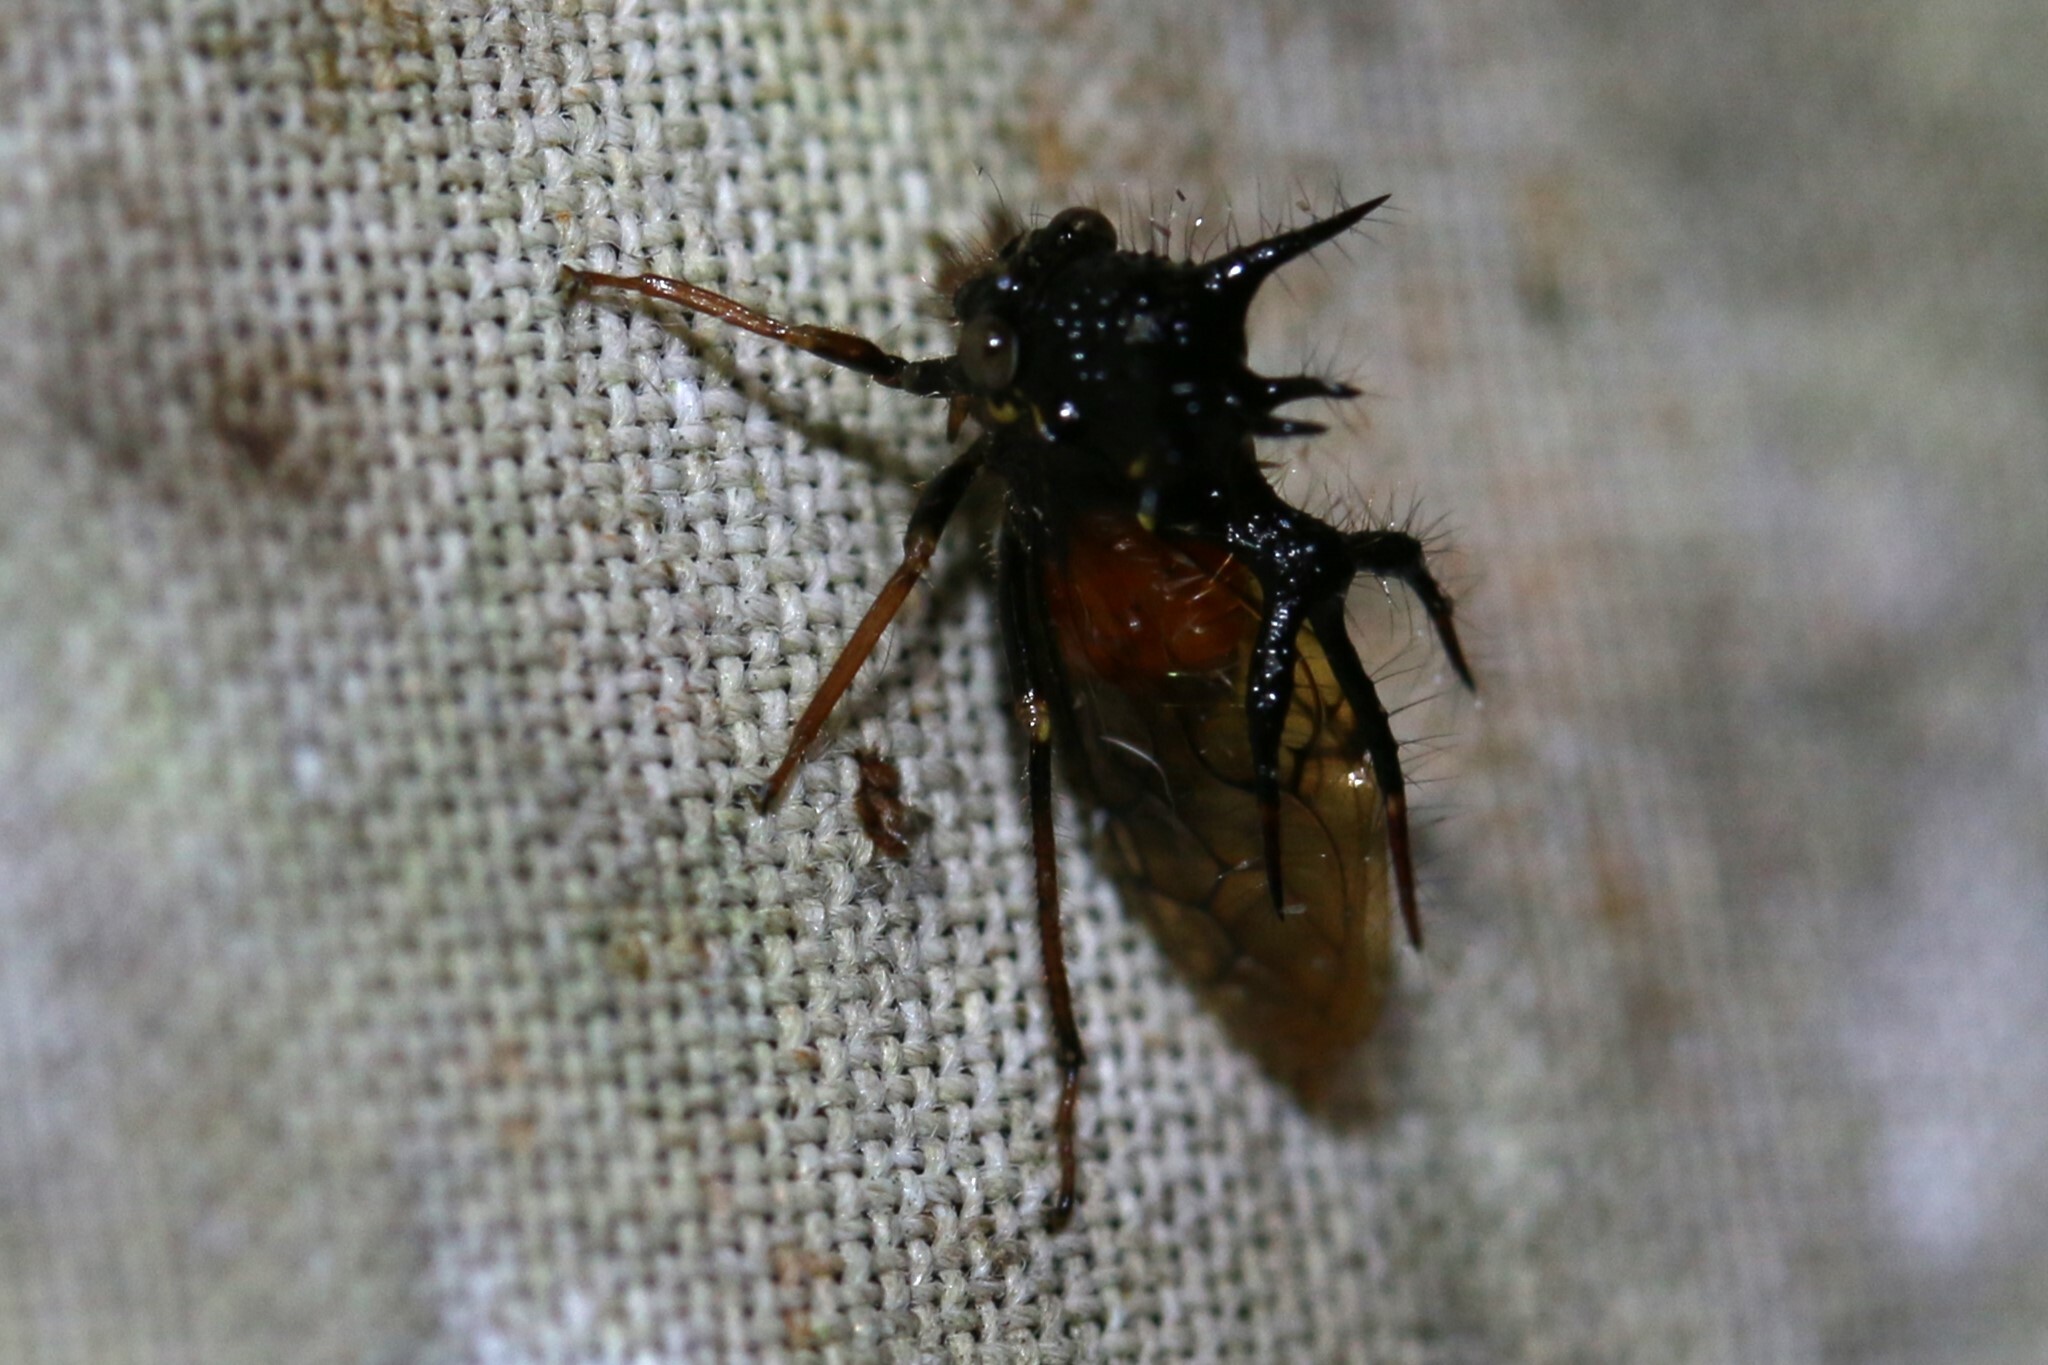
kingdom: Animalia
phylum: Arthropoda
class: Insecta
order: Hemiptera
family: Membracidae
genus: Cyphonia
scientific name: Cyphonia andina
